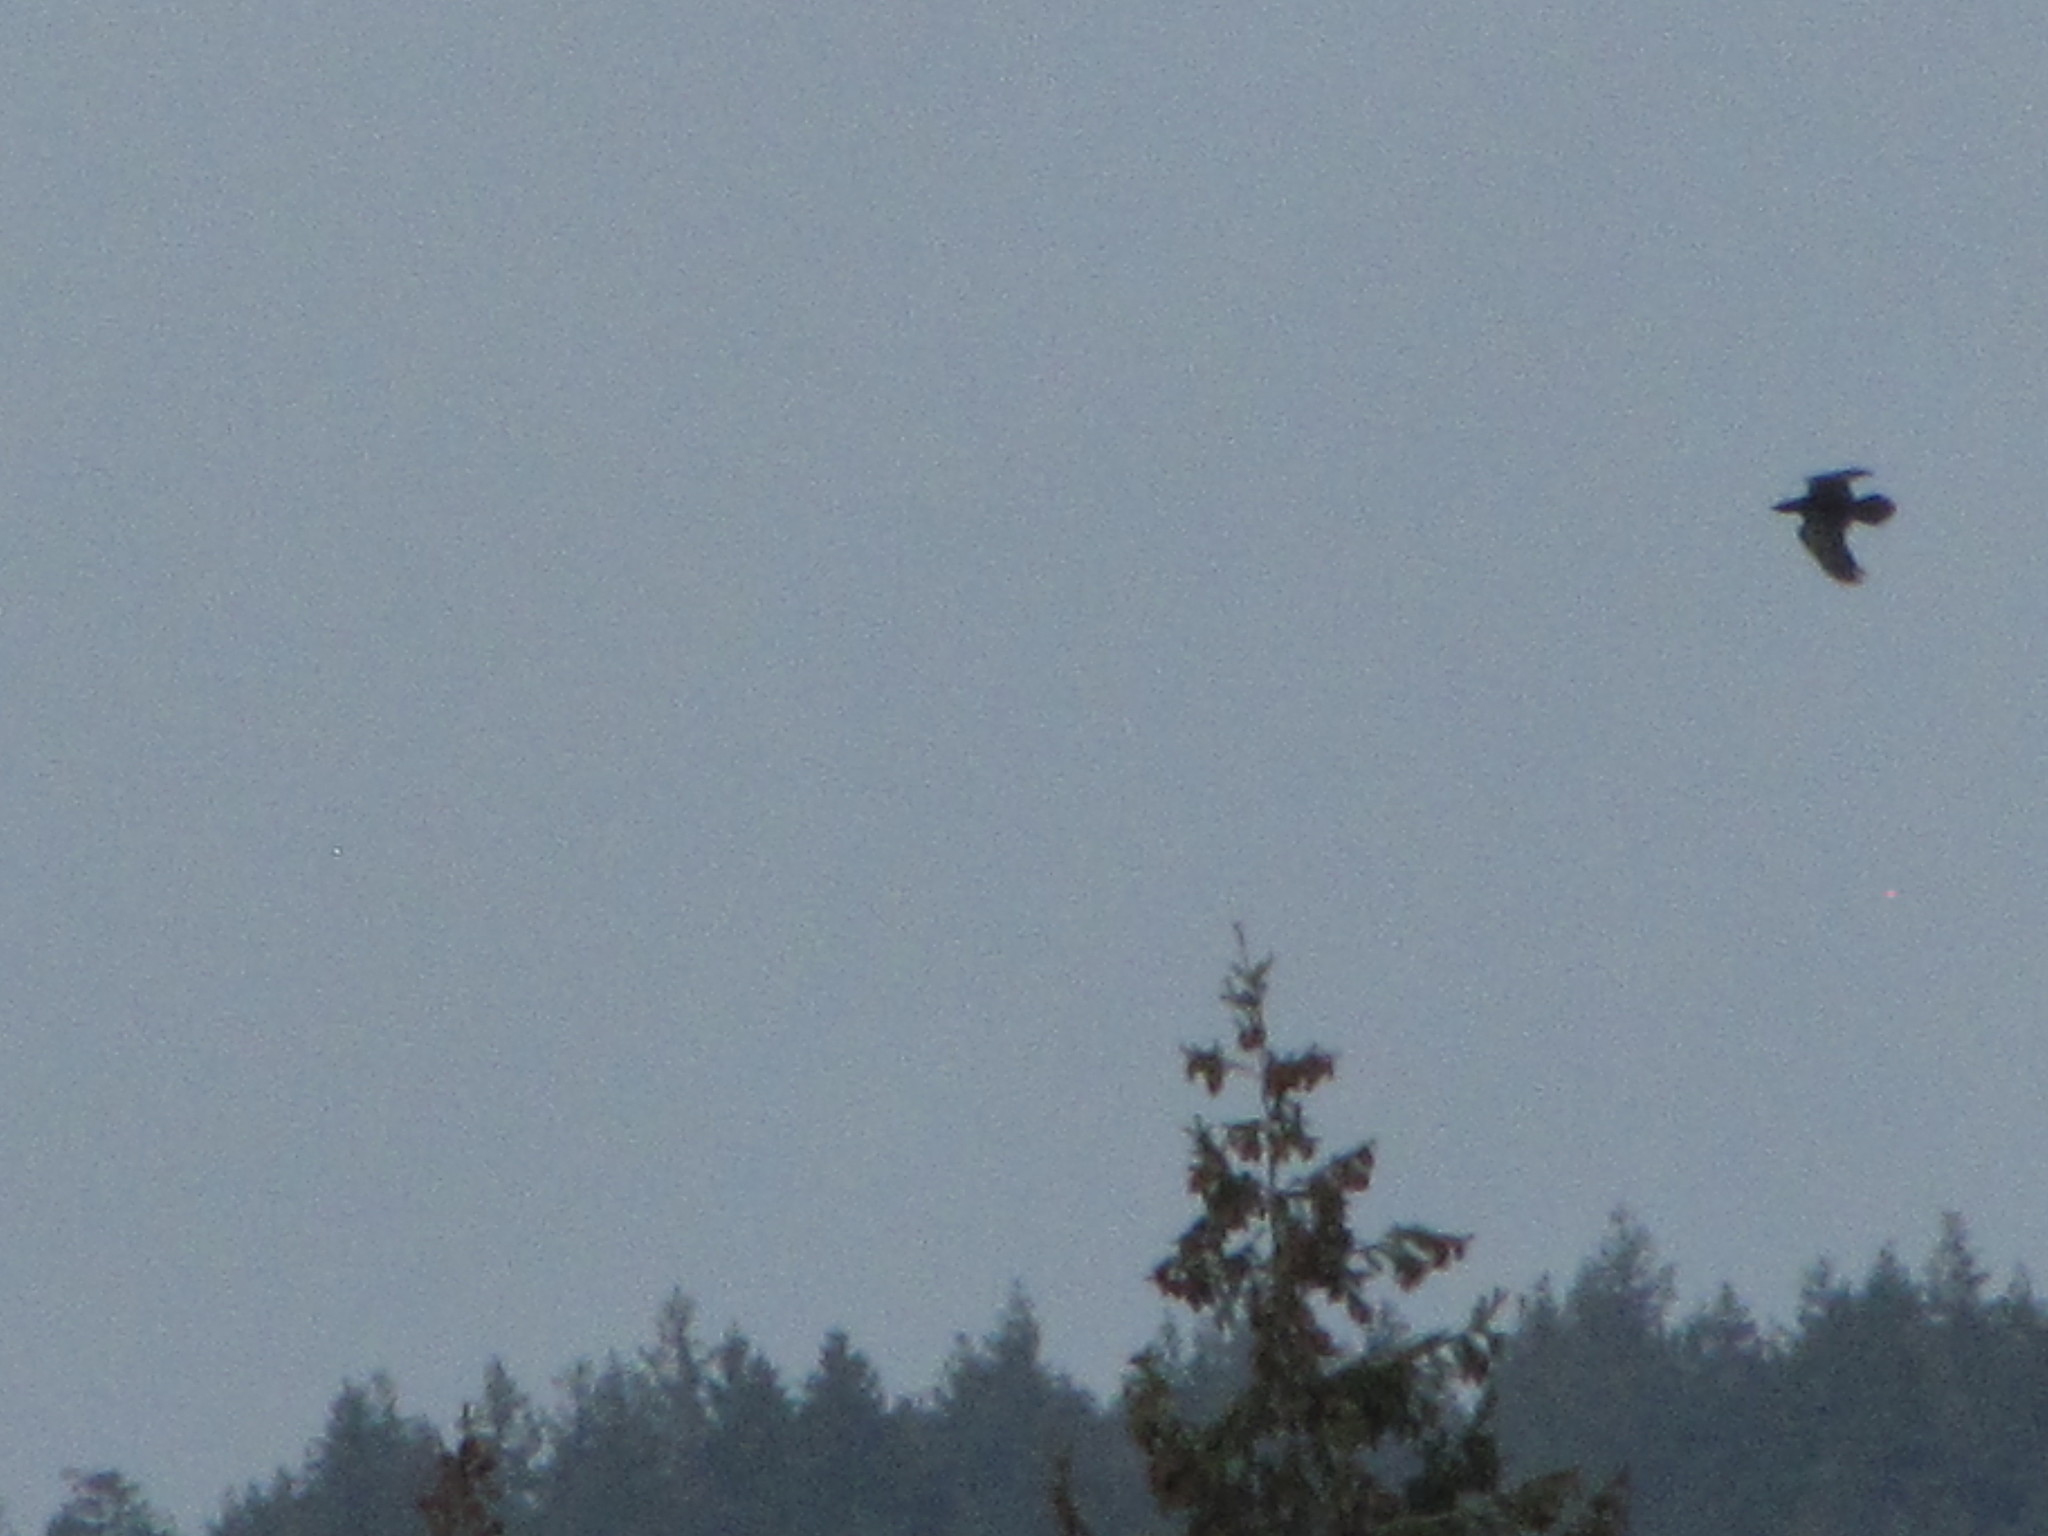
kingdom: Animalia
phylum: Chordata
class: Aves
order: Passeriformes
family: Corvidae
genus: Corvus
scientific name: Corvus corax
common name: Common raven
